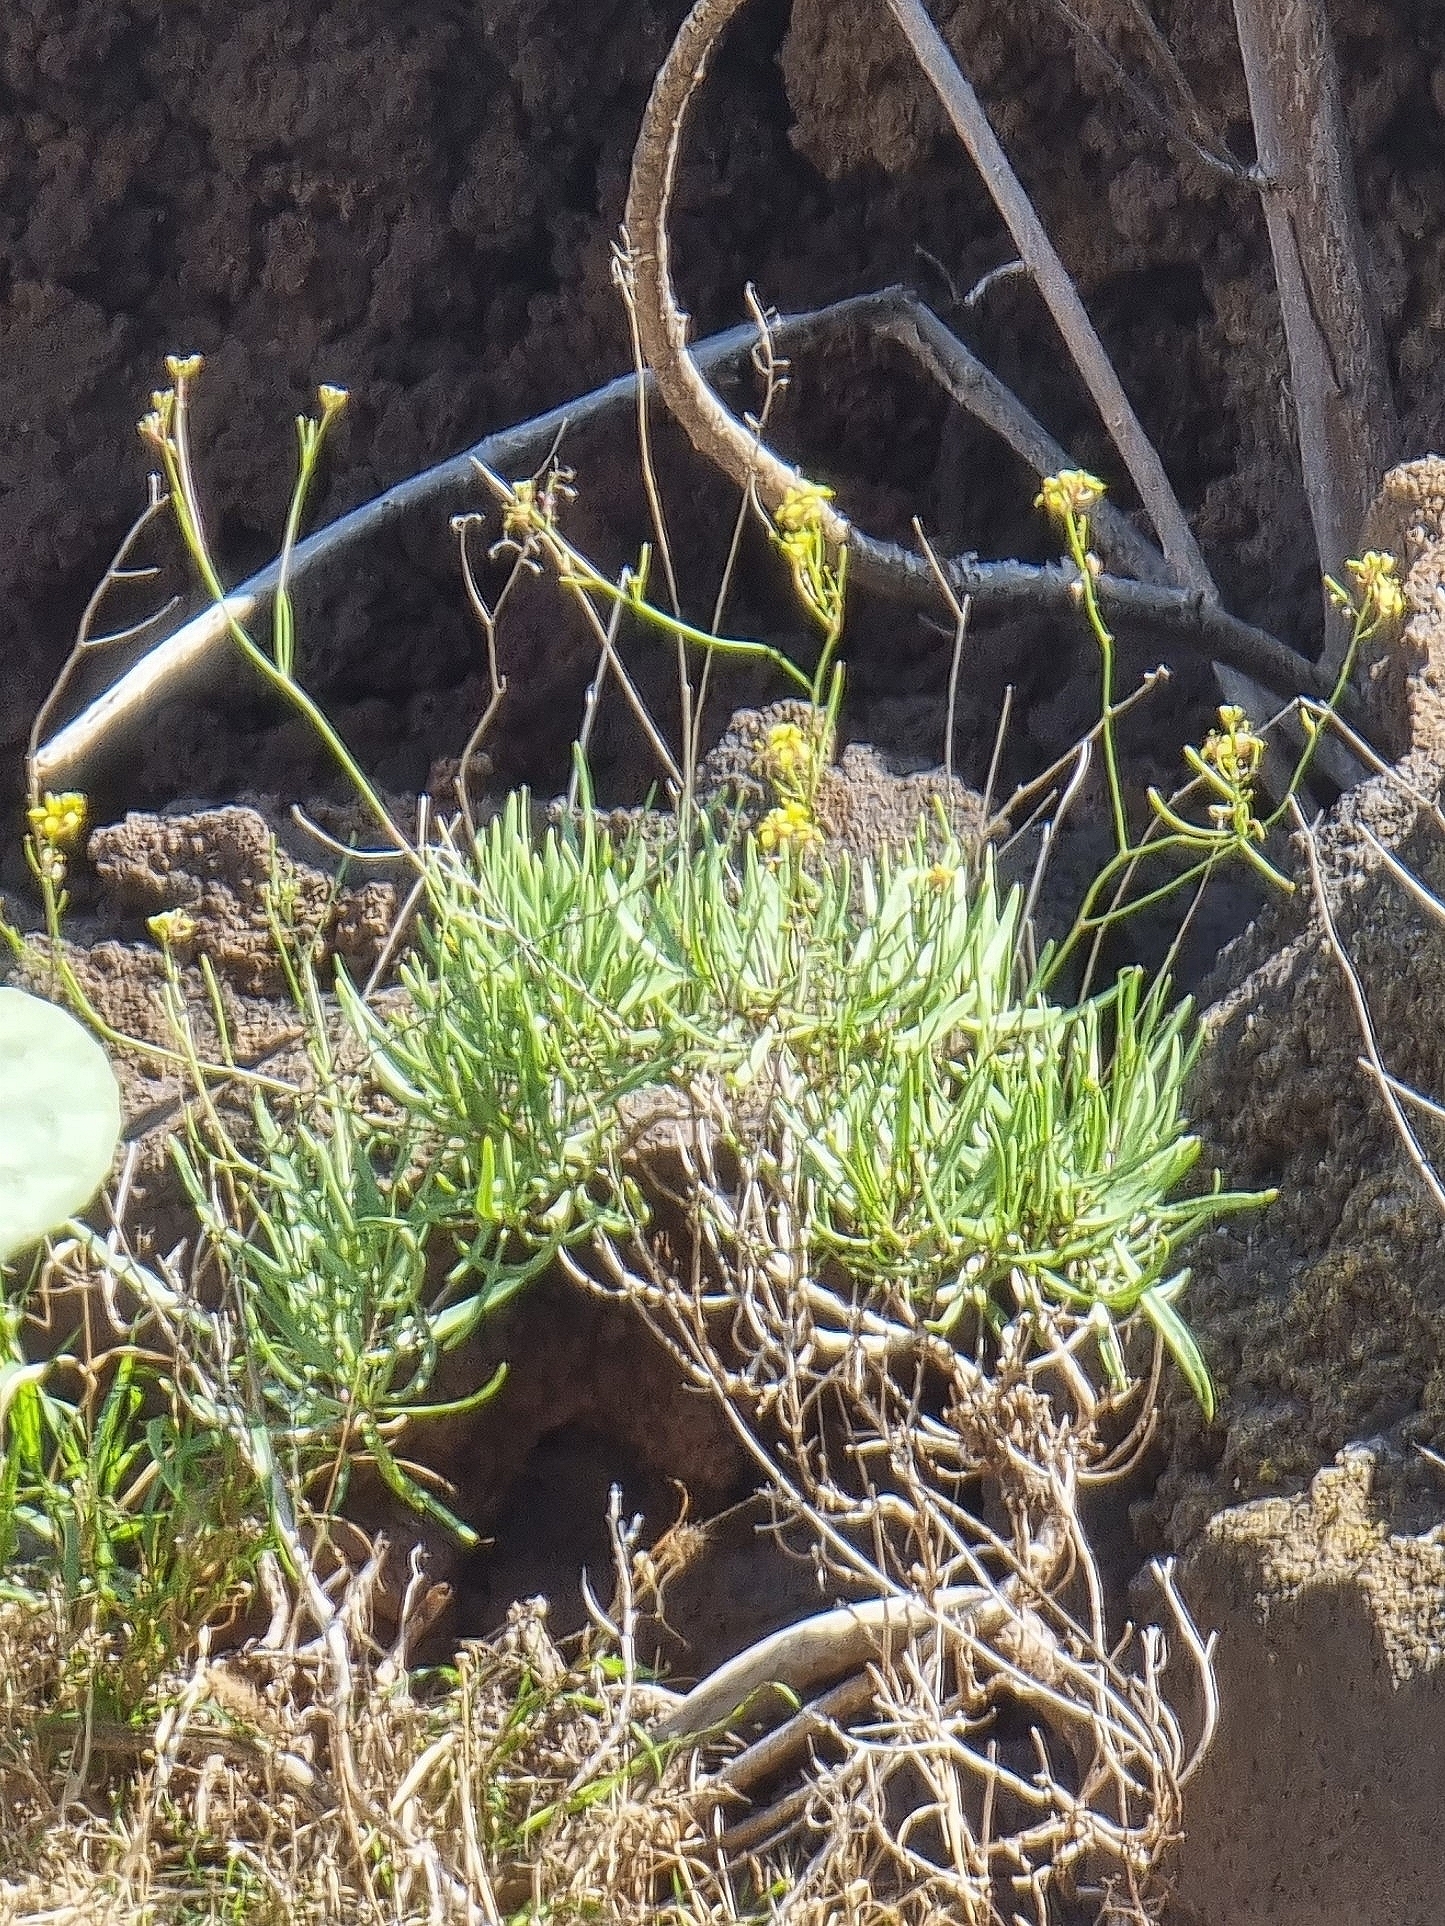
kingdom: Plantae
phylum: Tracheophyta
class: Magnoliopsida
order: Brassicales
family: Brassicaceae
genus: Sinapidendron
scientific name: Sinapidendron angustifolium
